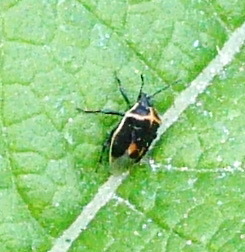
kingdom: Animalia
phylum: Arthropoda
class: Insecta
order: Hemiptera
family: Pentatomidae
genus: Cosmopepla
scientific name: Cosmopepla lintneriana
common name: Twice-stabbed stink bug
